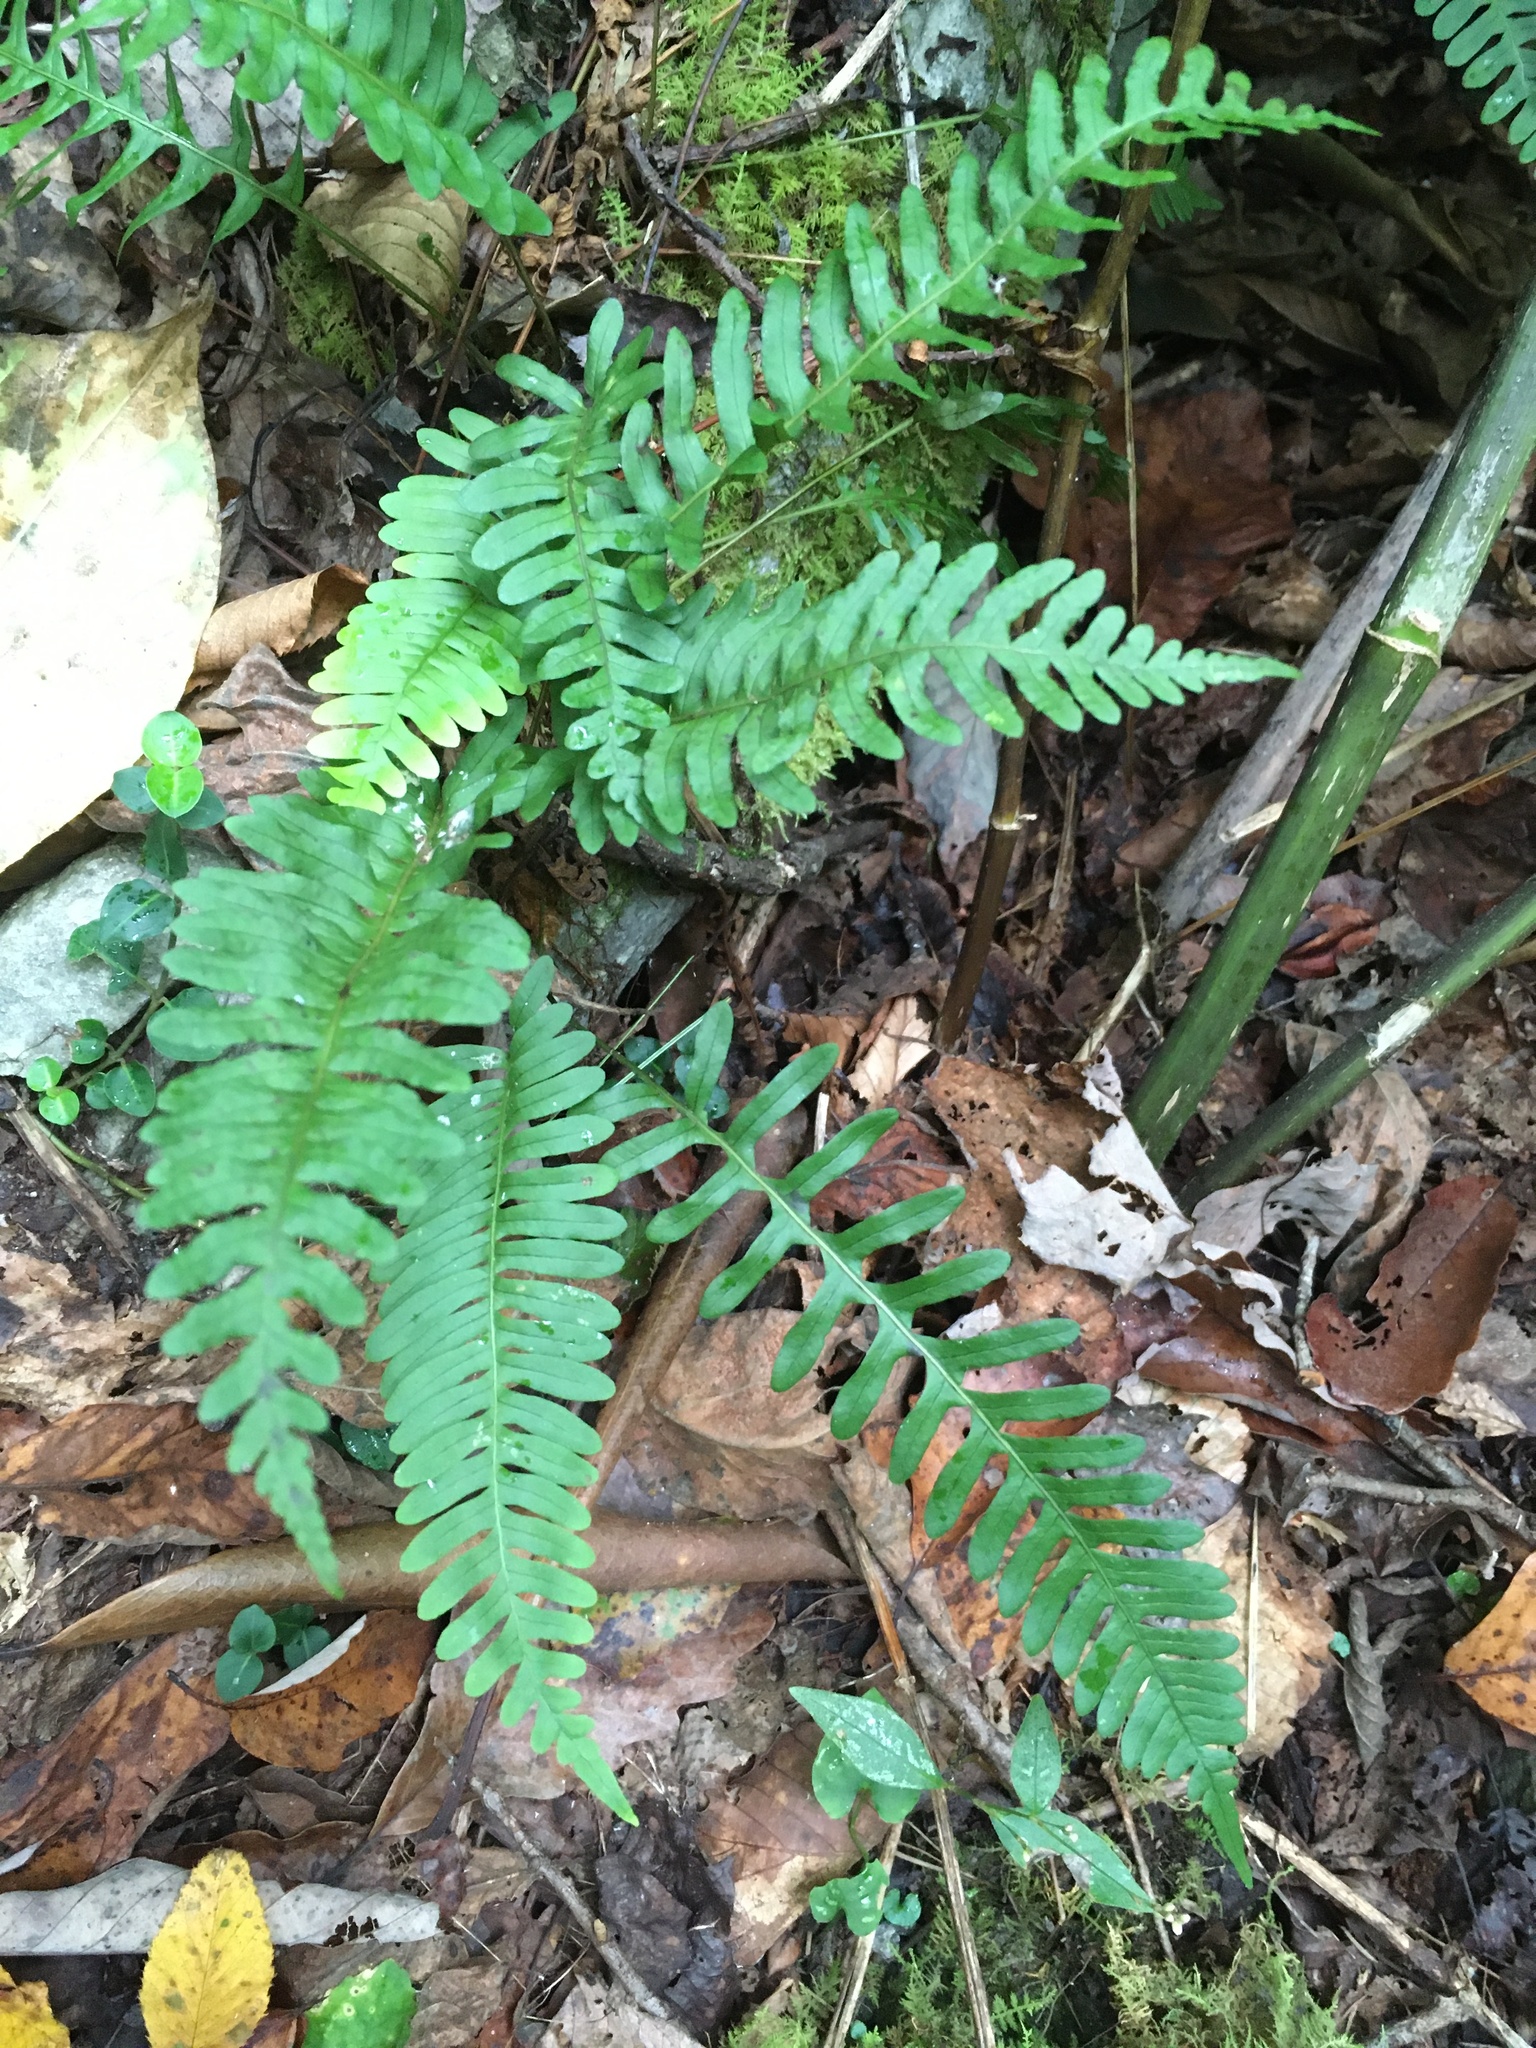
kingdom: Plantae
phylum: Tracheophyta
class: Polypodiopsida
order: Polypodiales
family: Polypodiaceae
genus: Polypodium
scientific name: Polypodium virginianum
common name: American wall fern
